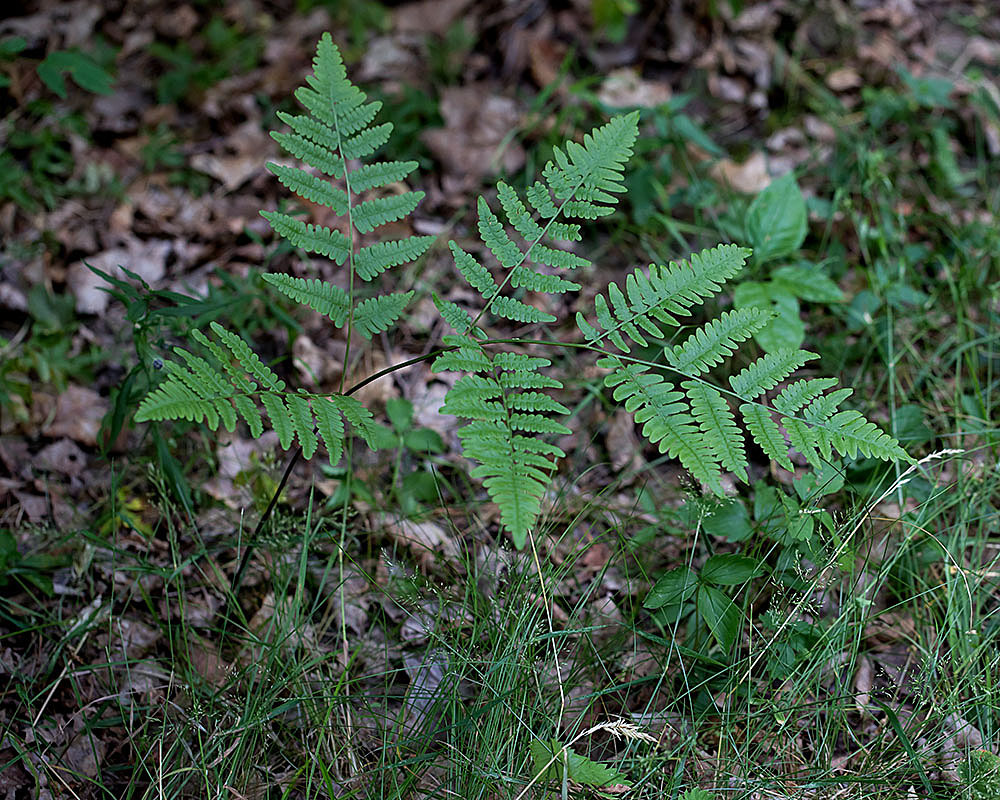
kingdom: Plantae
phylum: Tracheophyta
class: Polypodiopsida
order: Polypodiales
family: Dennstaedtiaceae
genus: Pteridium
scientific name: Pteridium aquilinum
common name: Bracken
